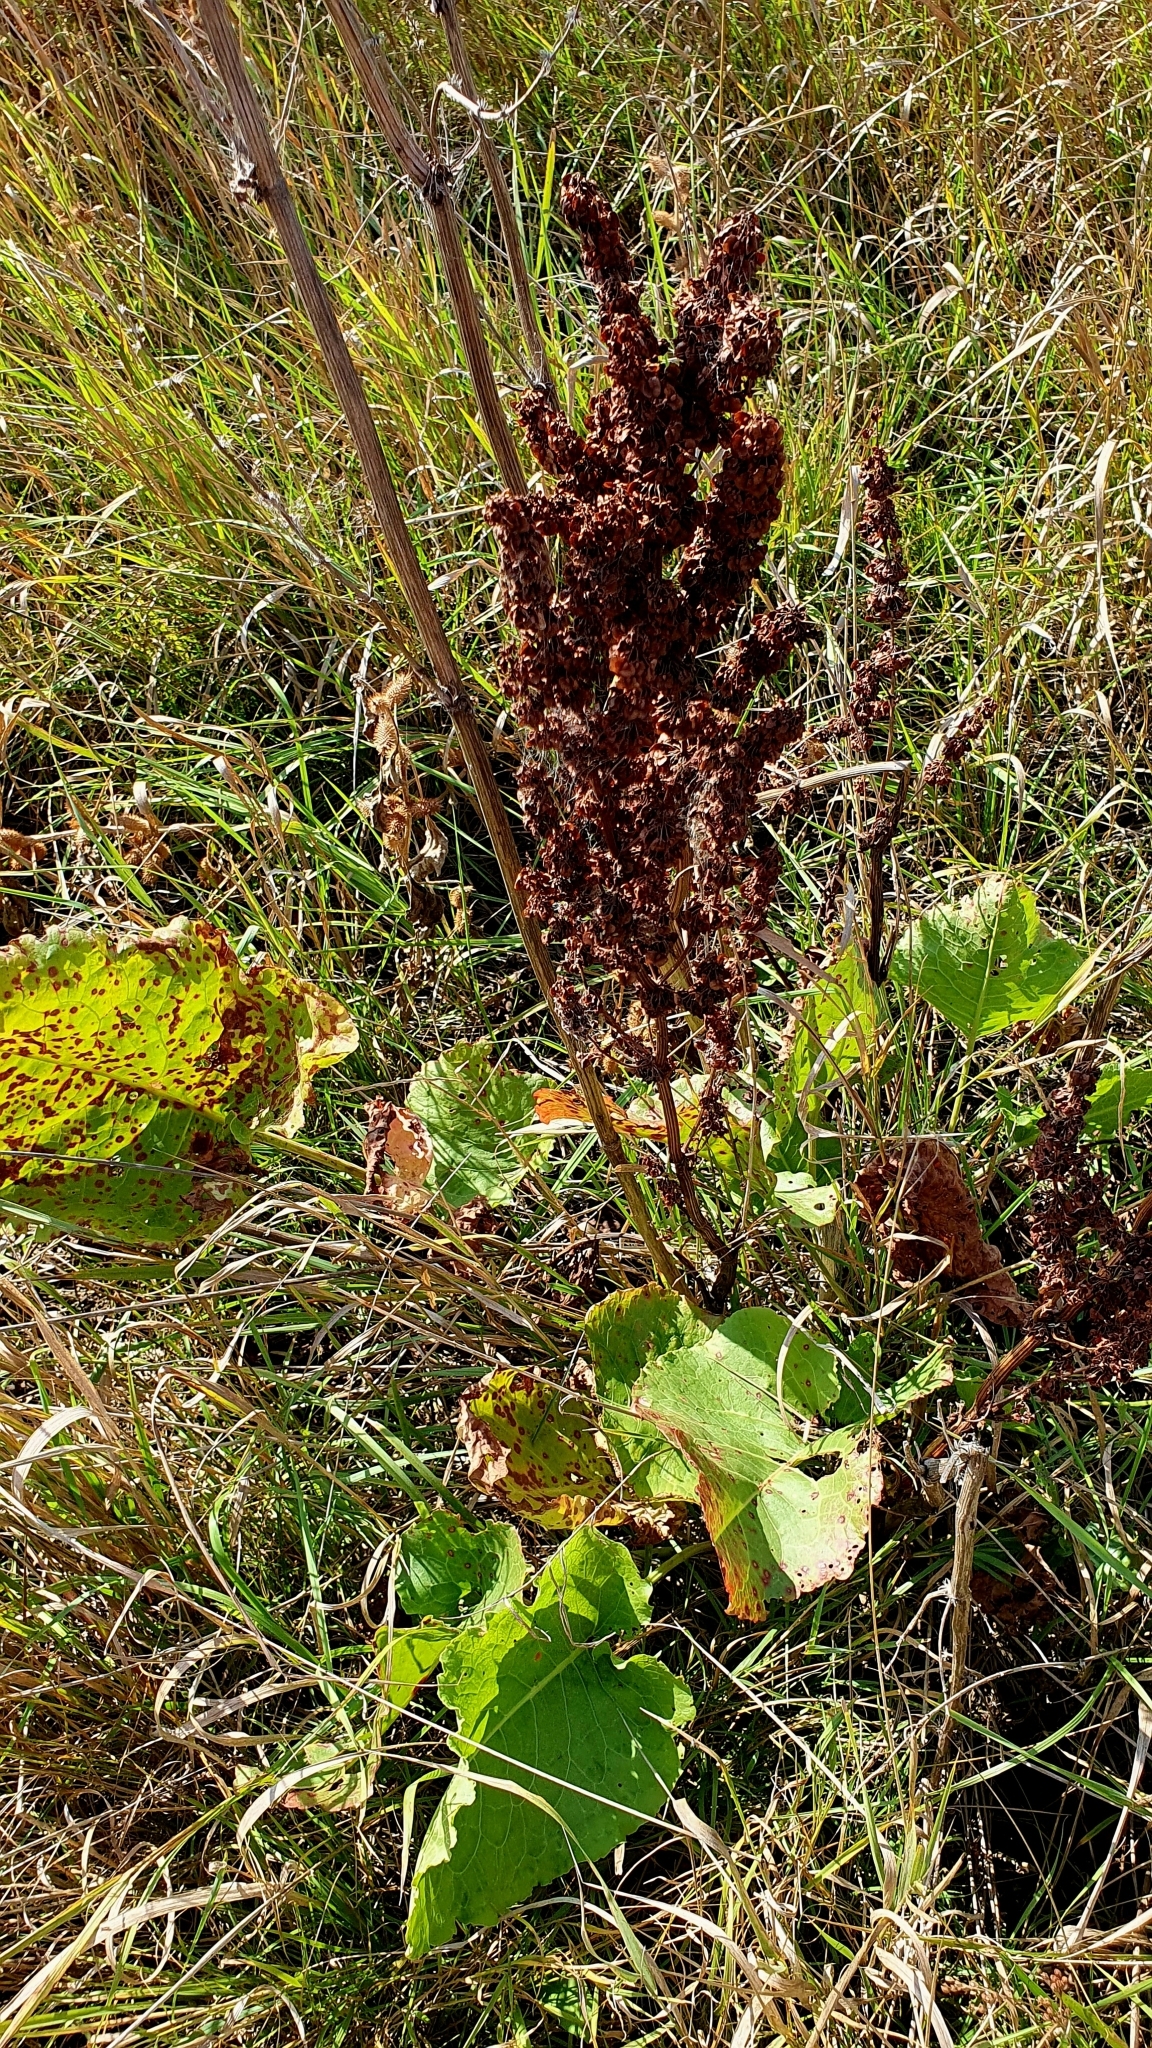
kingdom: Plantae
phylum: Tracheophyta
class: Magnoliopsida
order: Caryophyllales
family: Polygonaceae
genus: Rumex
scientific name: Rumex confertus
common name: Russian dock
